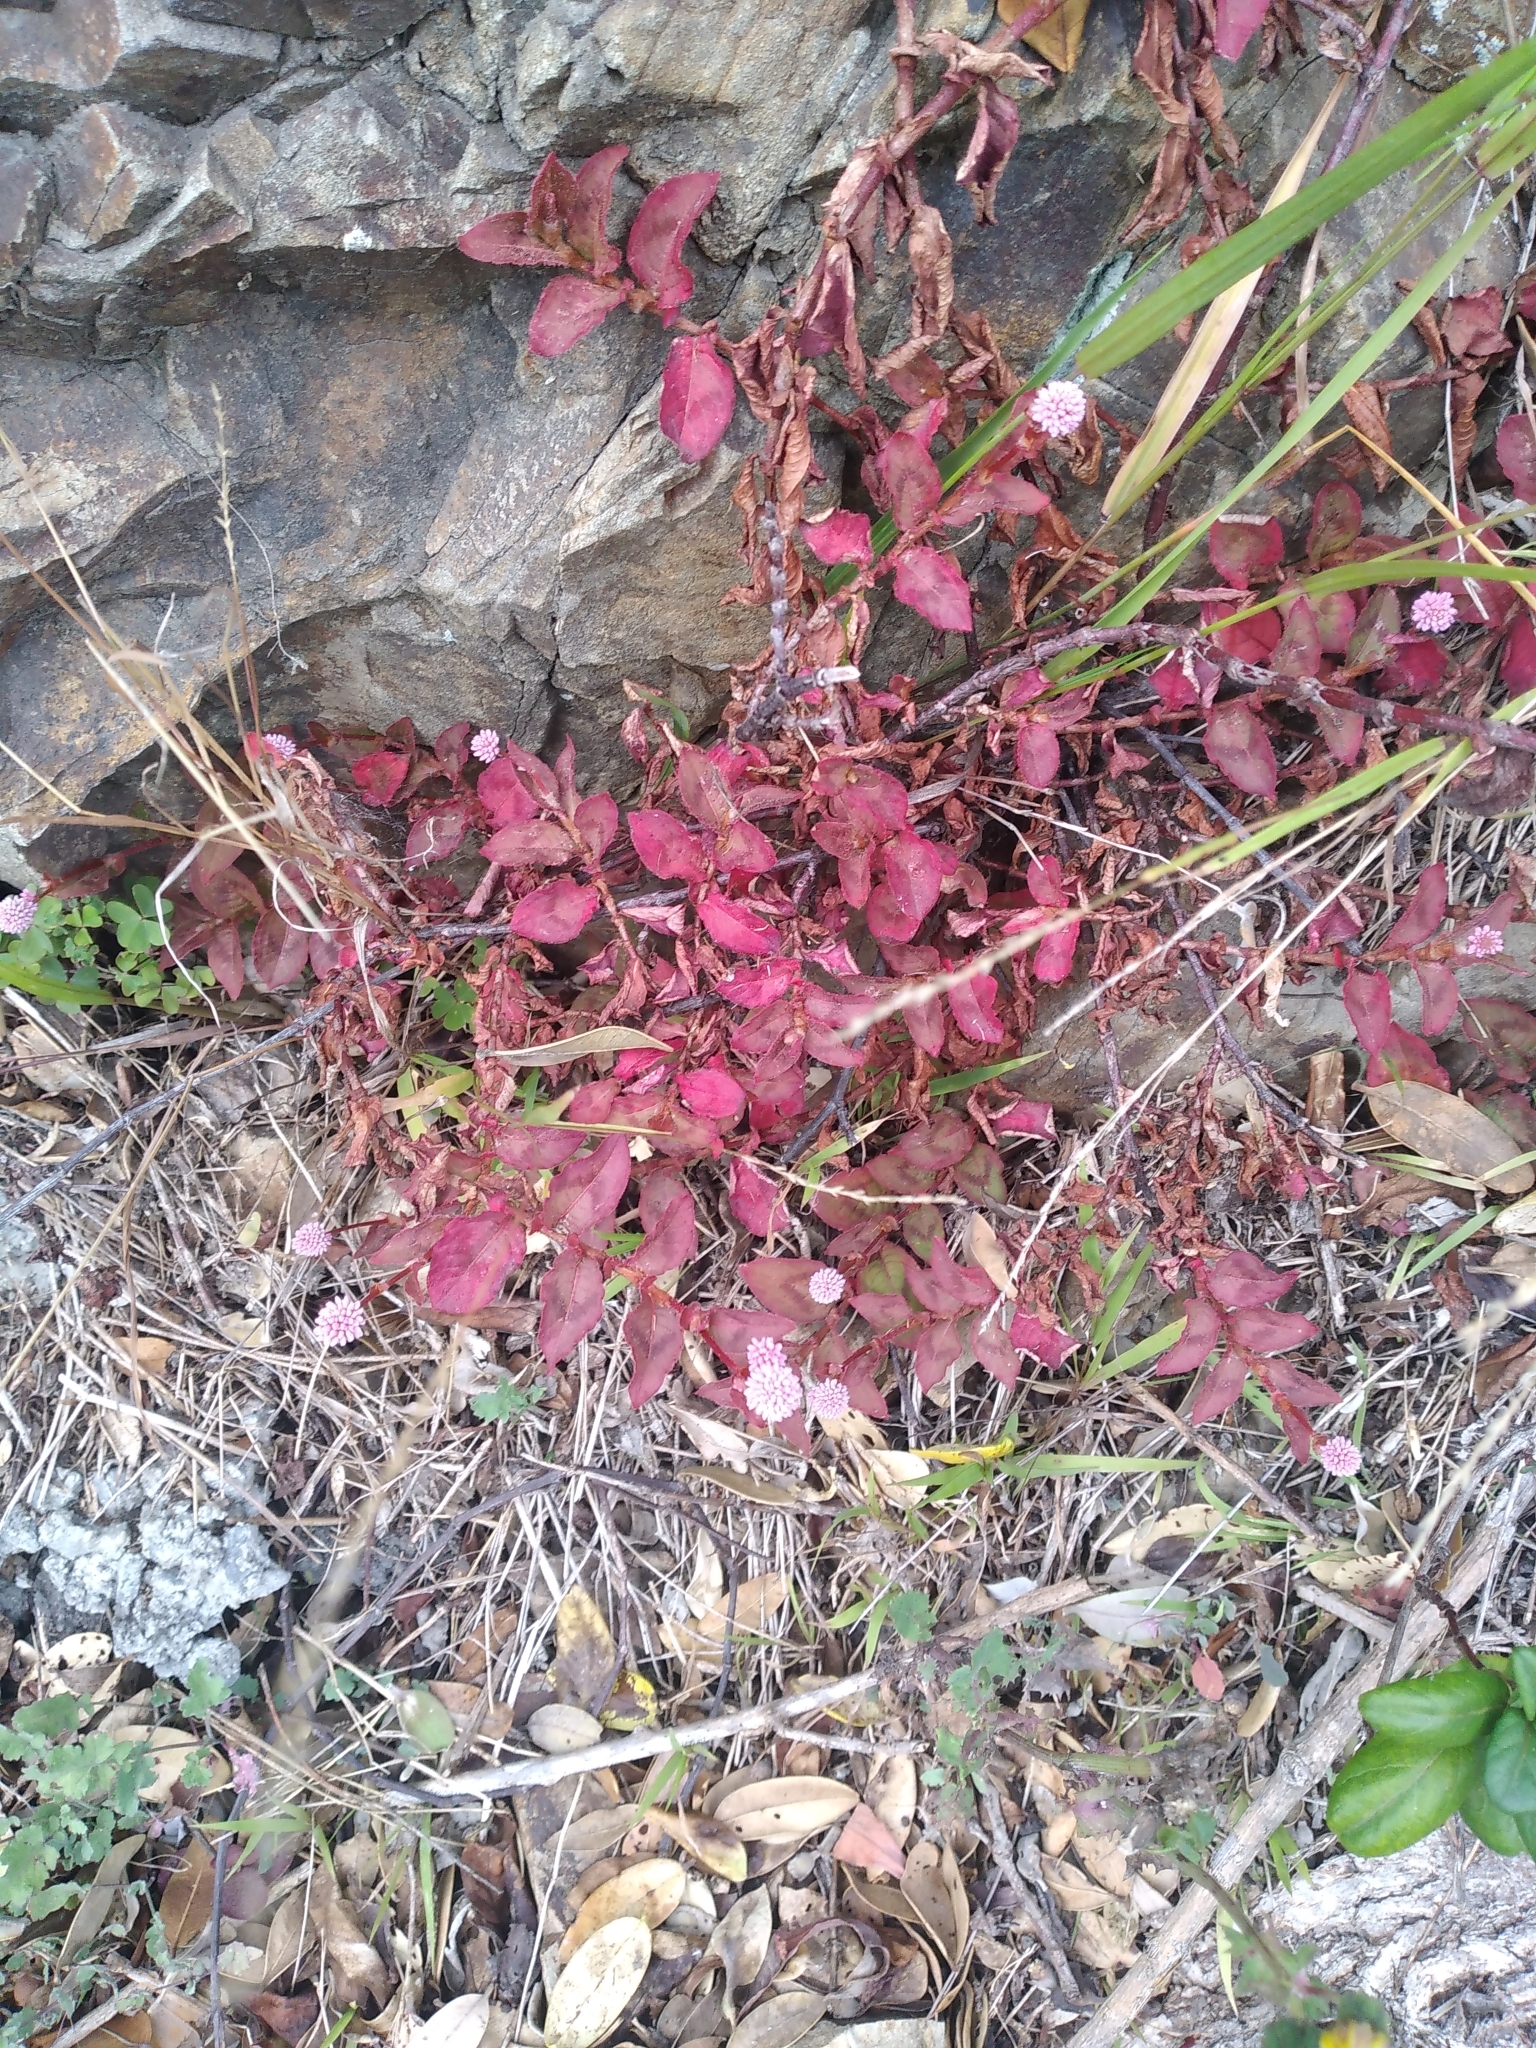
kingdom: Plantae
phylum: Tracheophyta
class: Magnoliopsida
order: Caryophyllales
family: Polygonaceae
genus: Persicaria
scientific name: Persicaria capitata
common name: Pinkhead smartweed
